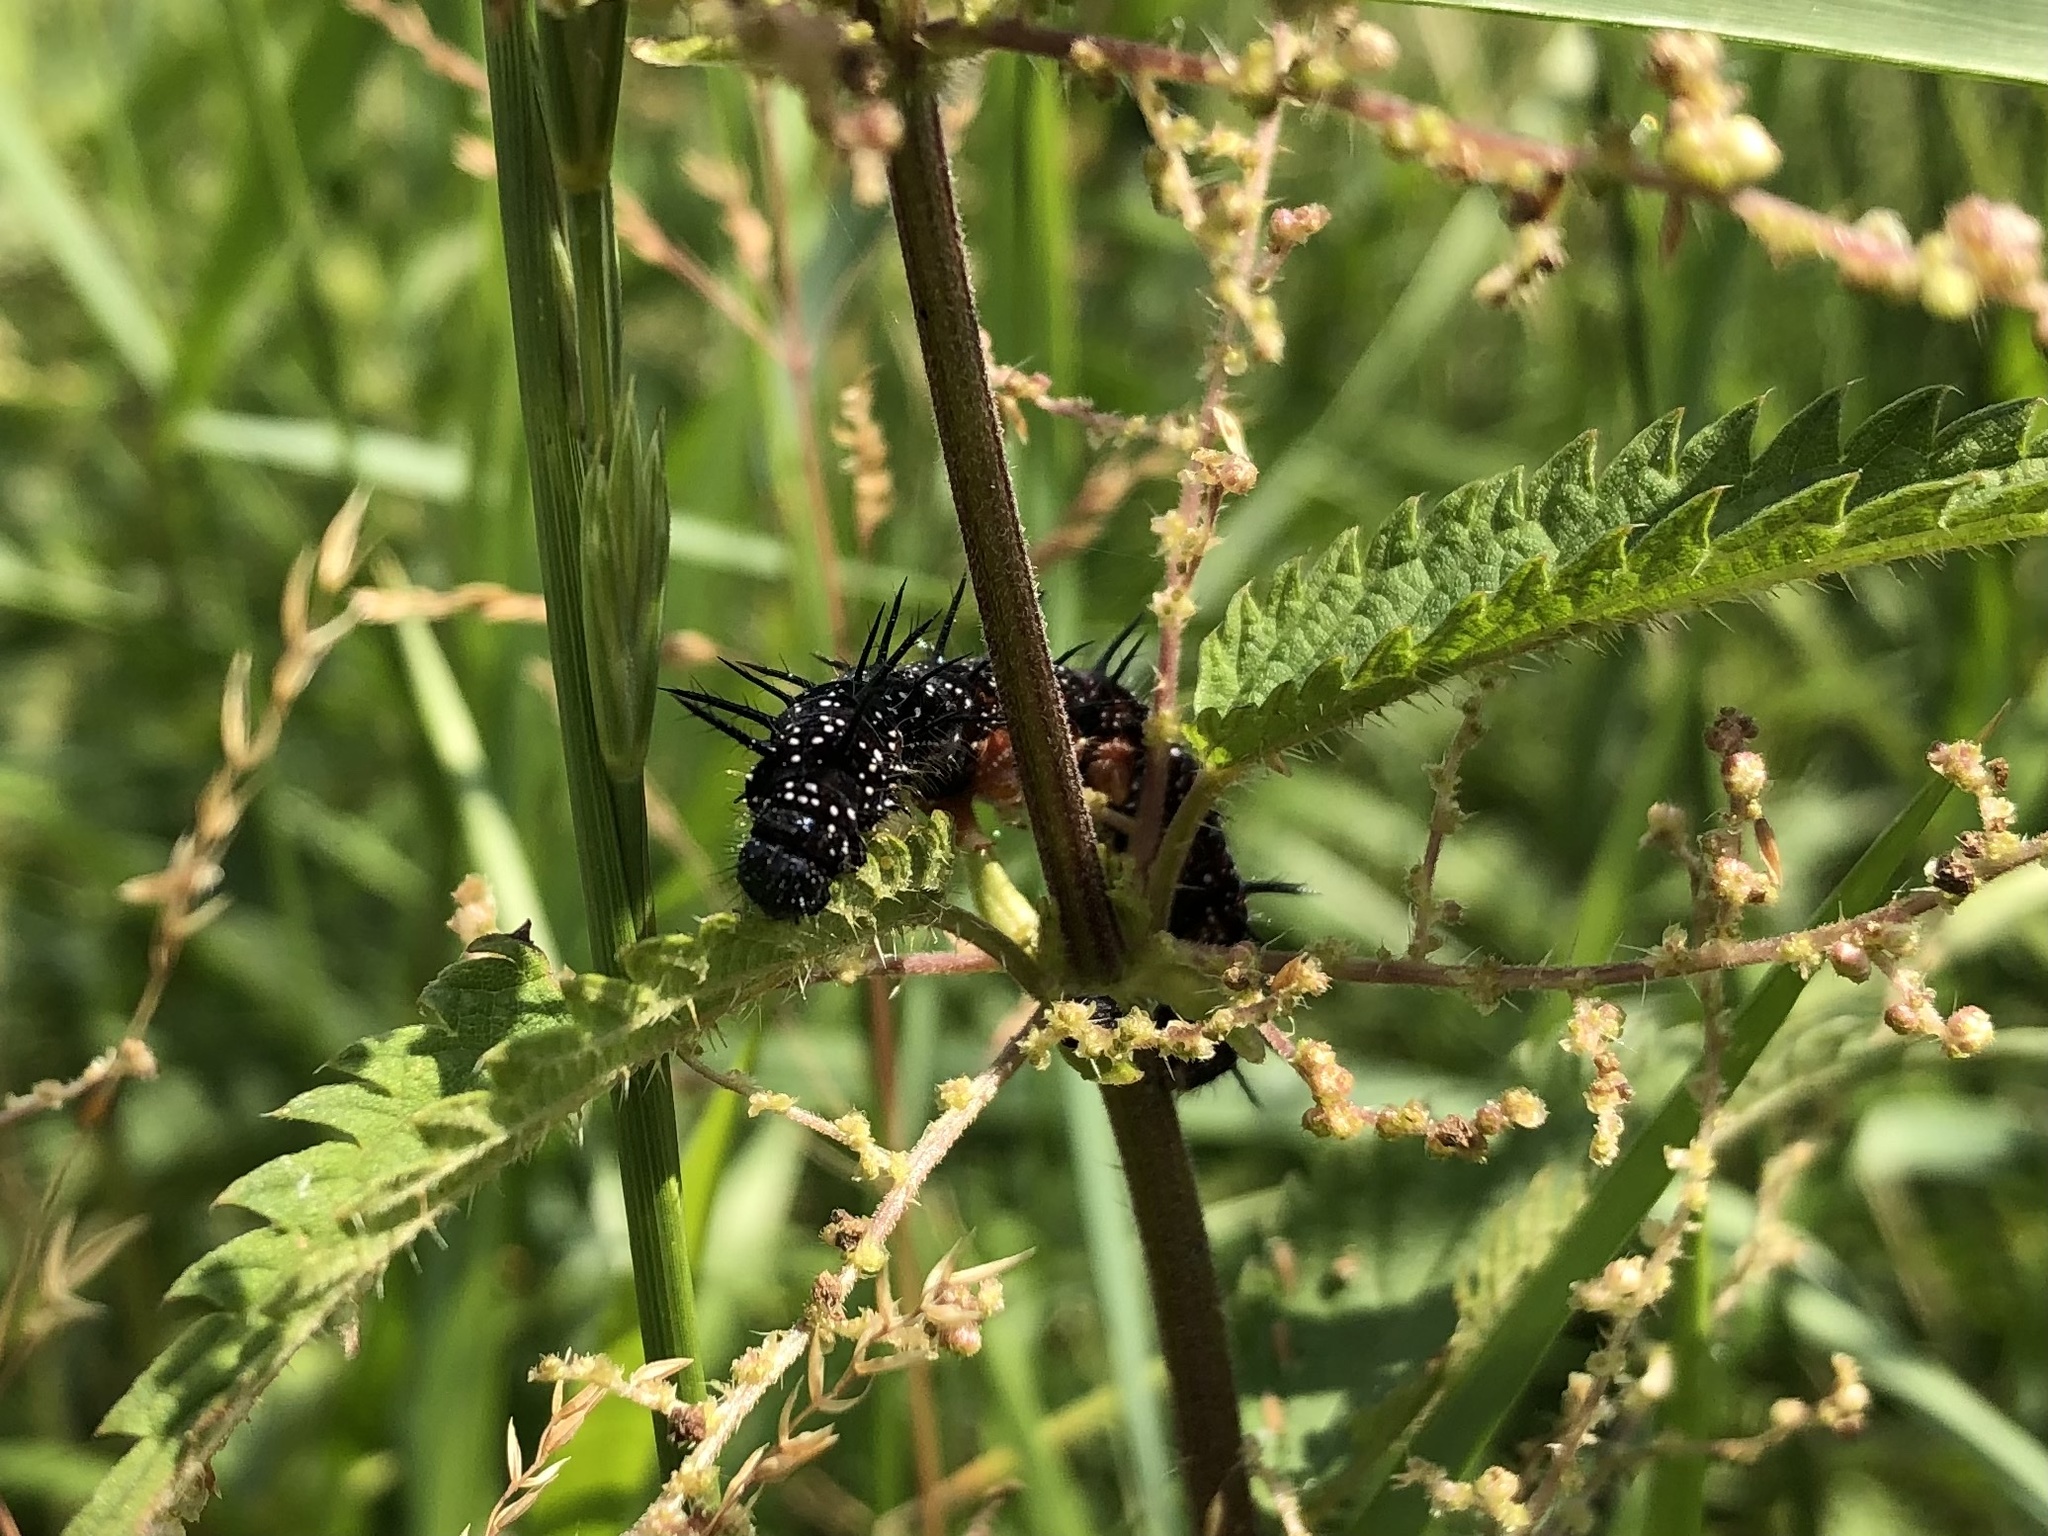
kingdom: Animalia
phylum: Arthropoda
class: Insecta
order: Lepidoptera
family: Nymphalidae
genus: Aglais
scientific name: Aglais io
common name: Peacock
